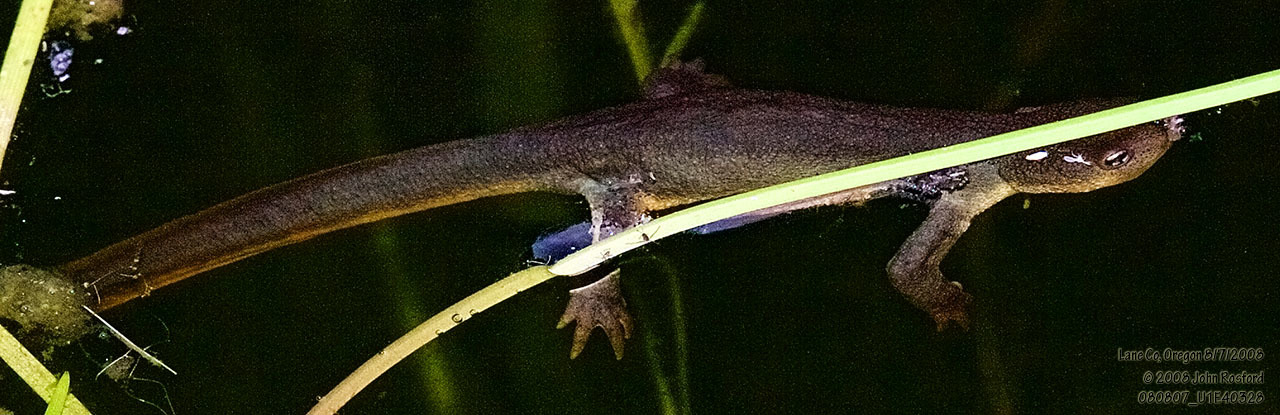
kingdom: Animalia
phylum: Chordata
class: Amphibia
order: Caudata
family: Salamandridae
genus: Taricha
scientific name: Taricha granulosa
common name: Roughskin newt
